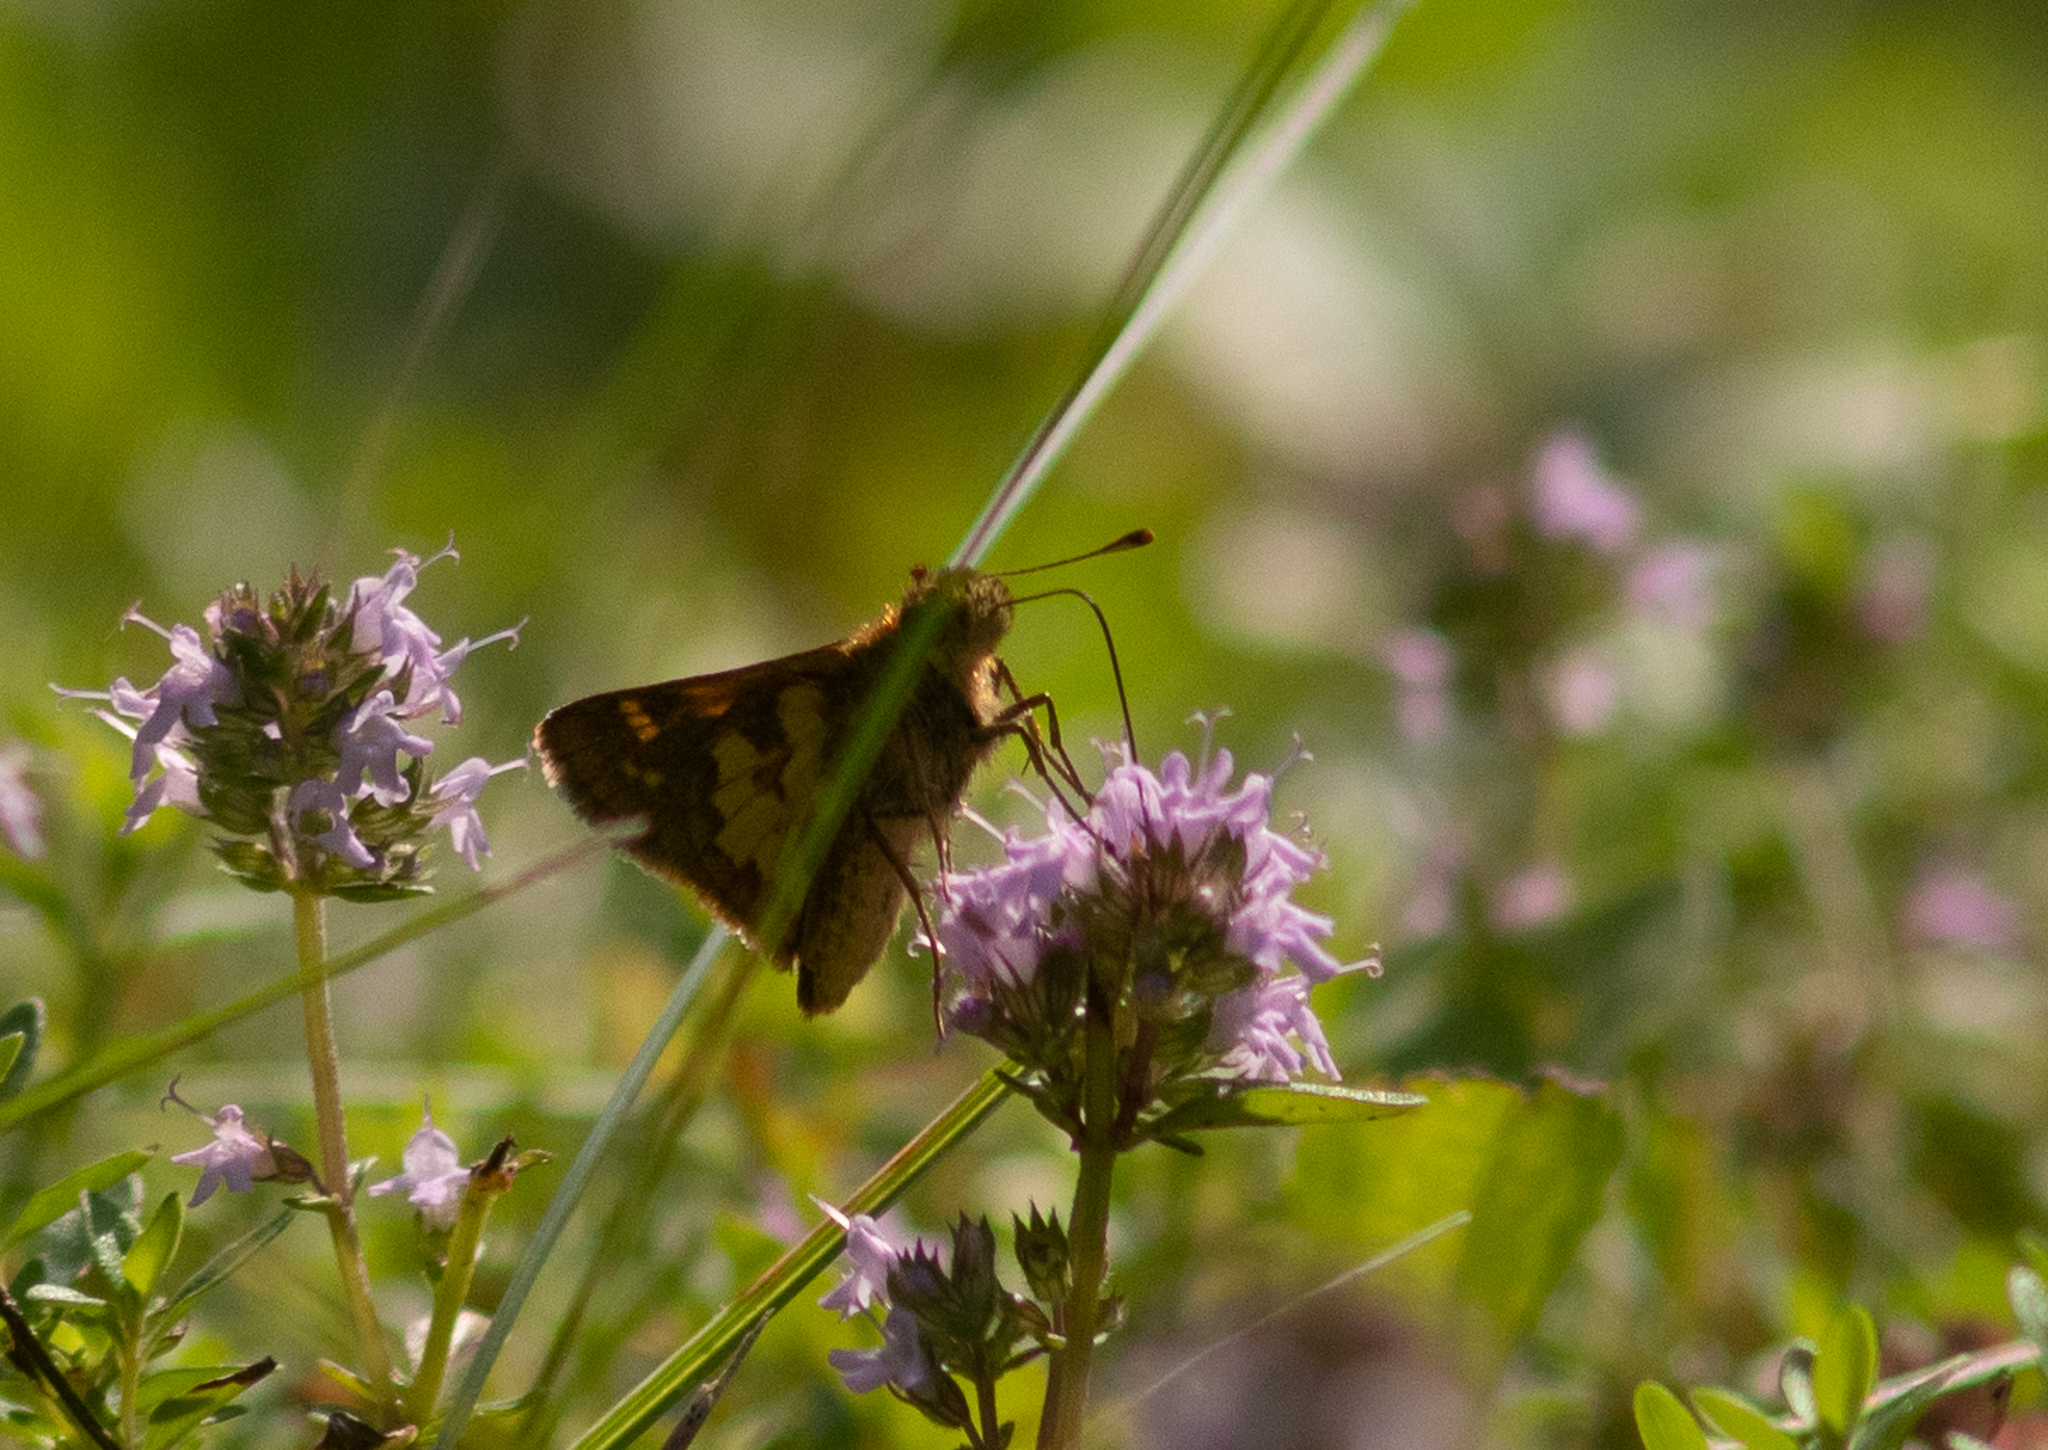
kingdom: Animalia
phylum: Arthropoda
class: Insecta
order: Lepidoptera
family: Hesperiidae
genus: Polites
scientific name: Polites coras
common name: Peck's skipper
